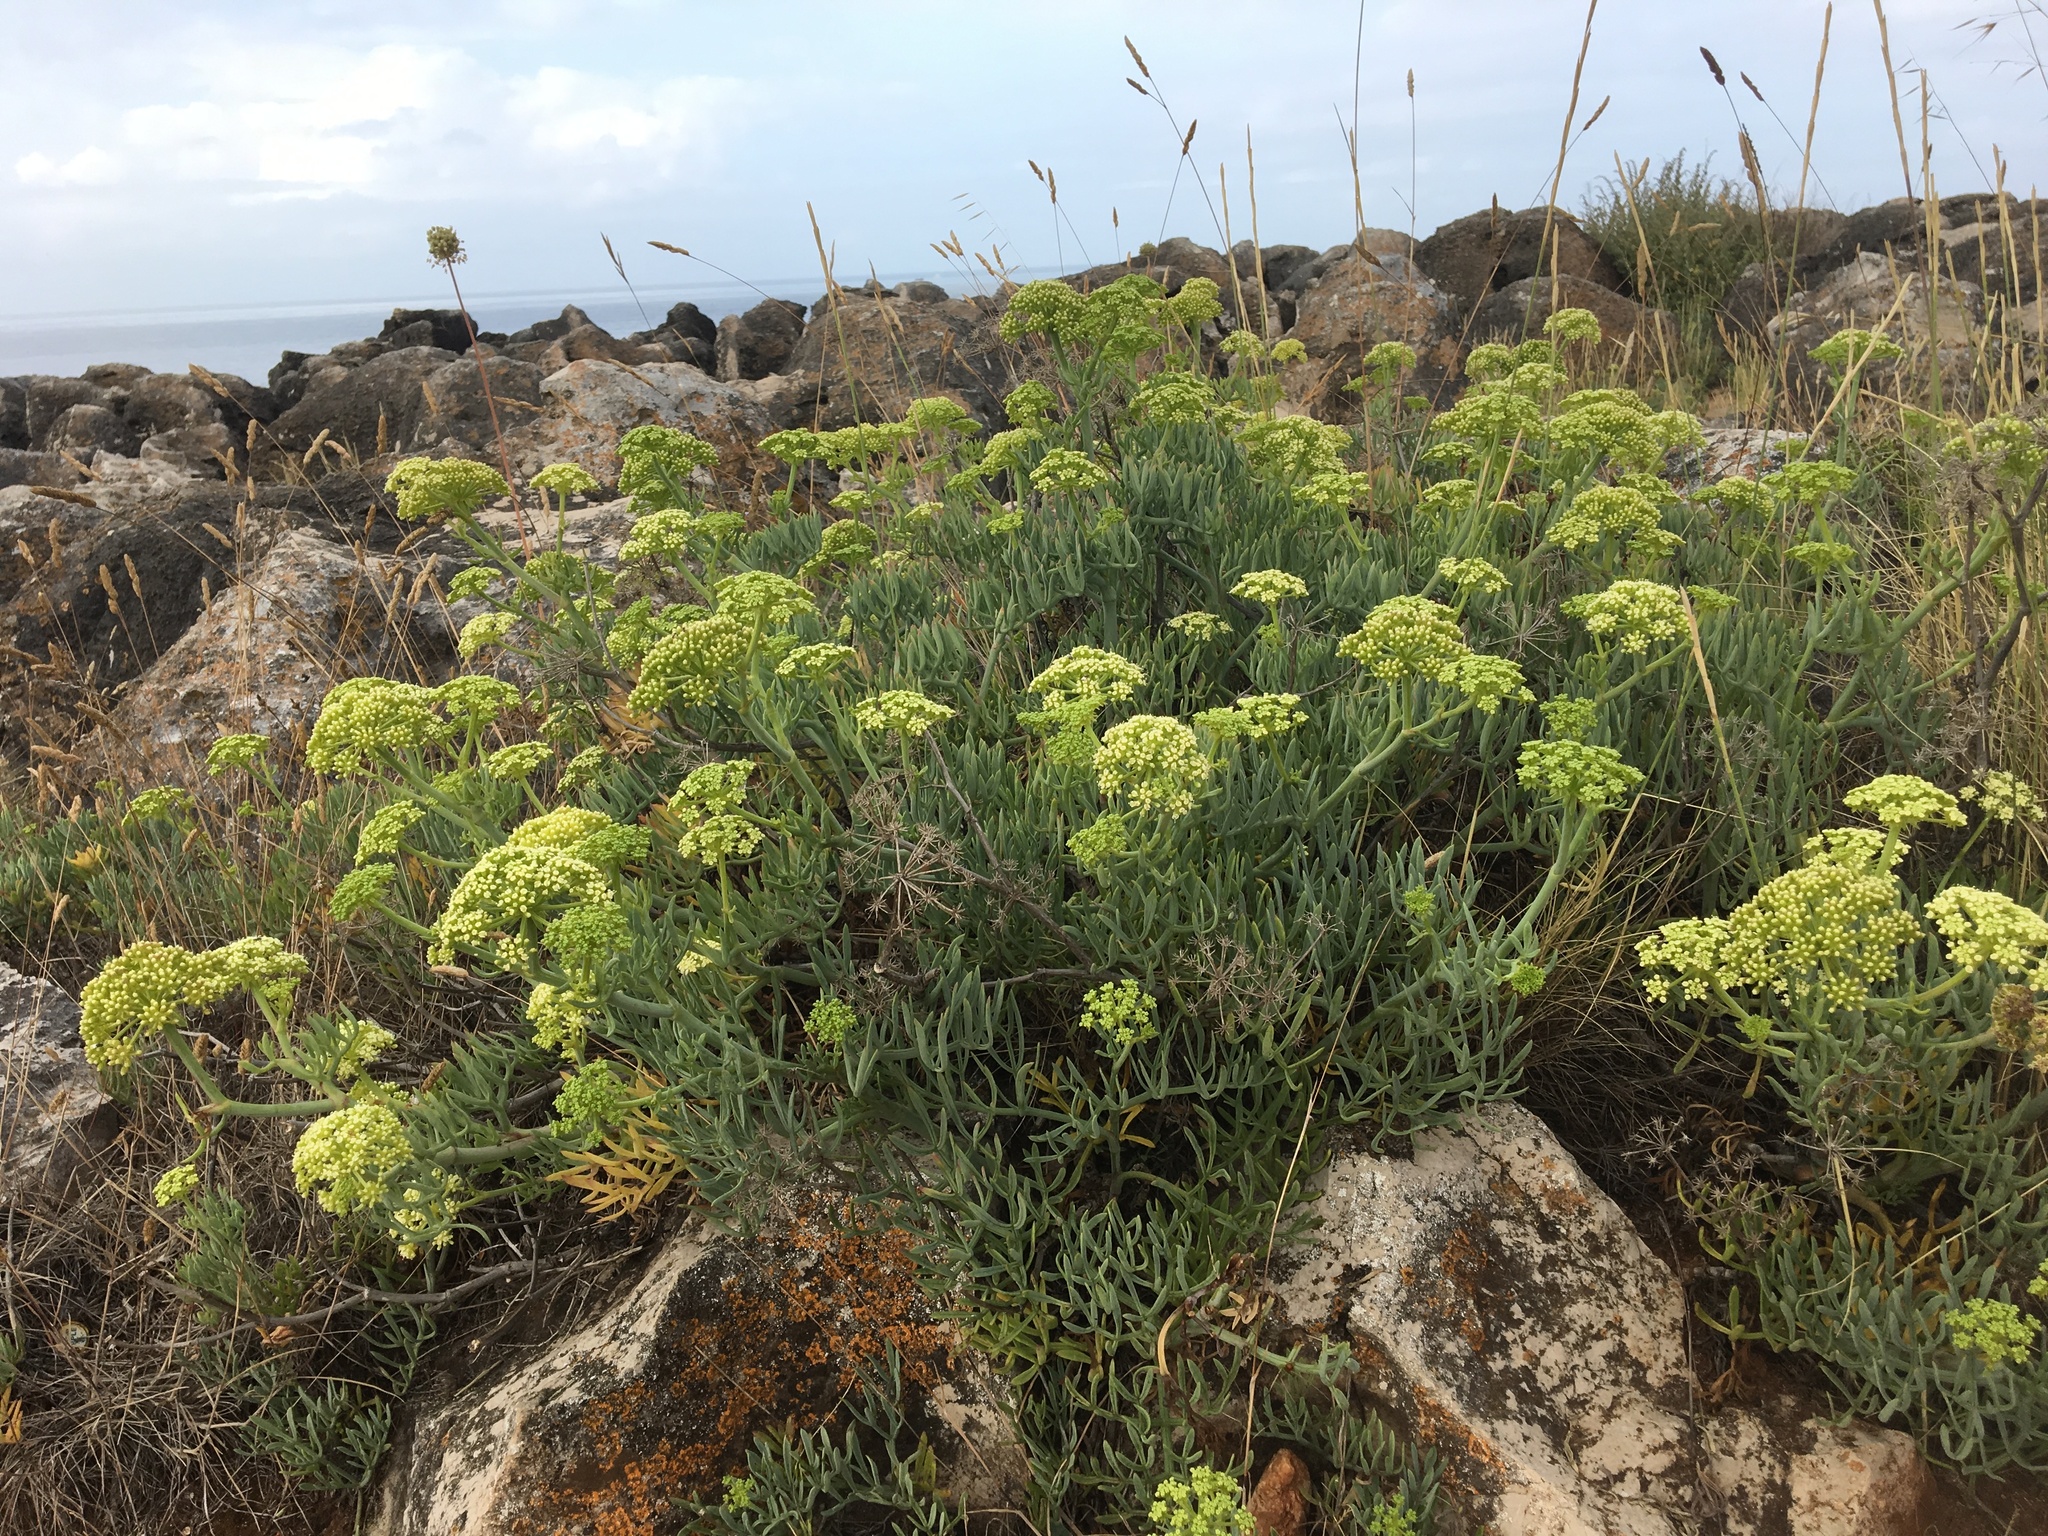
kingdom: Plantae
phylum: Tracheophyta
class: Magnoliopsida
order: Apiales
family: Apiaceae
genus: Crithmum
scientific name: Crithmum maritimum
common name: Rock samphire
